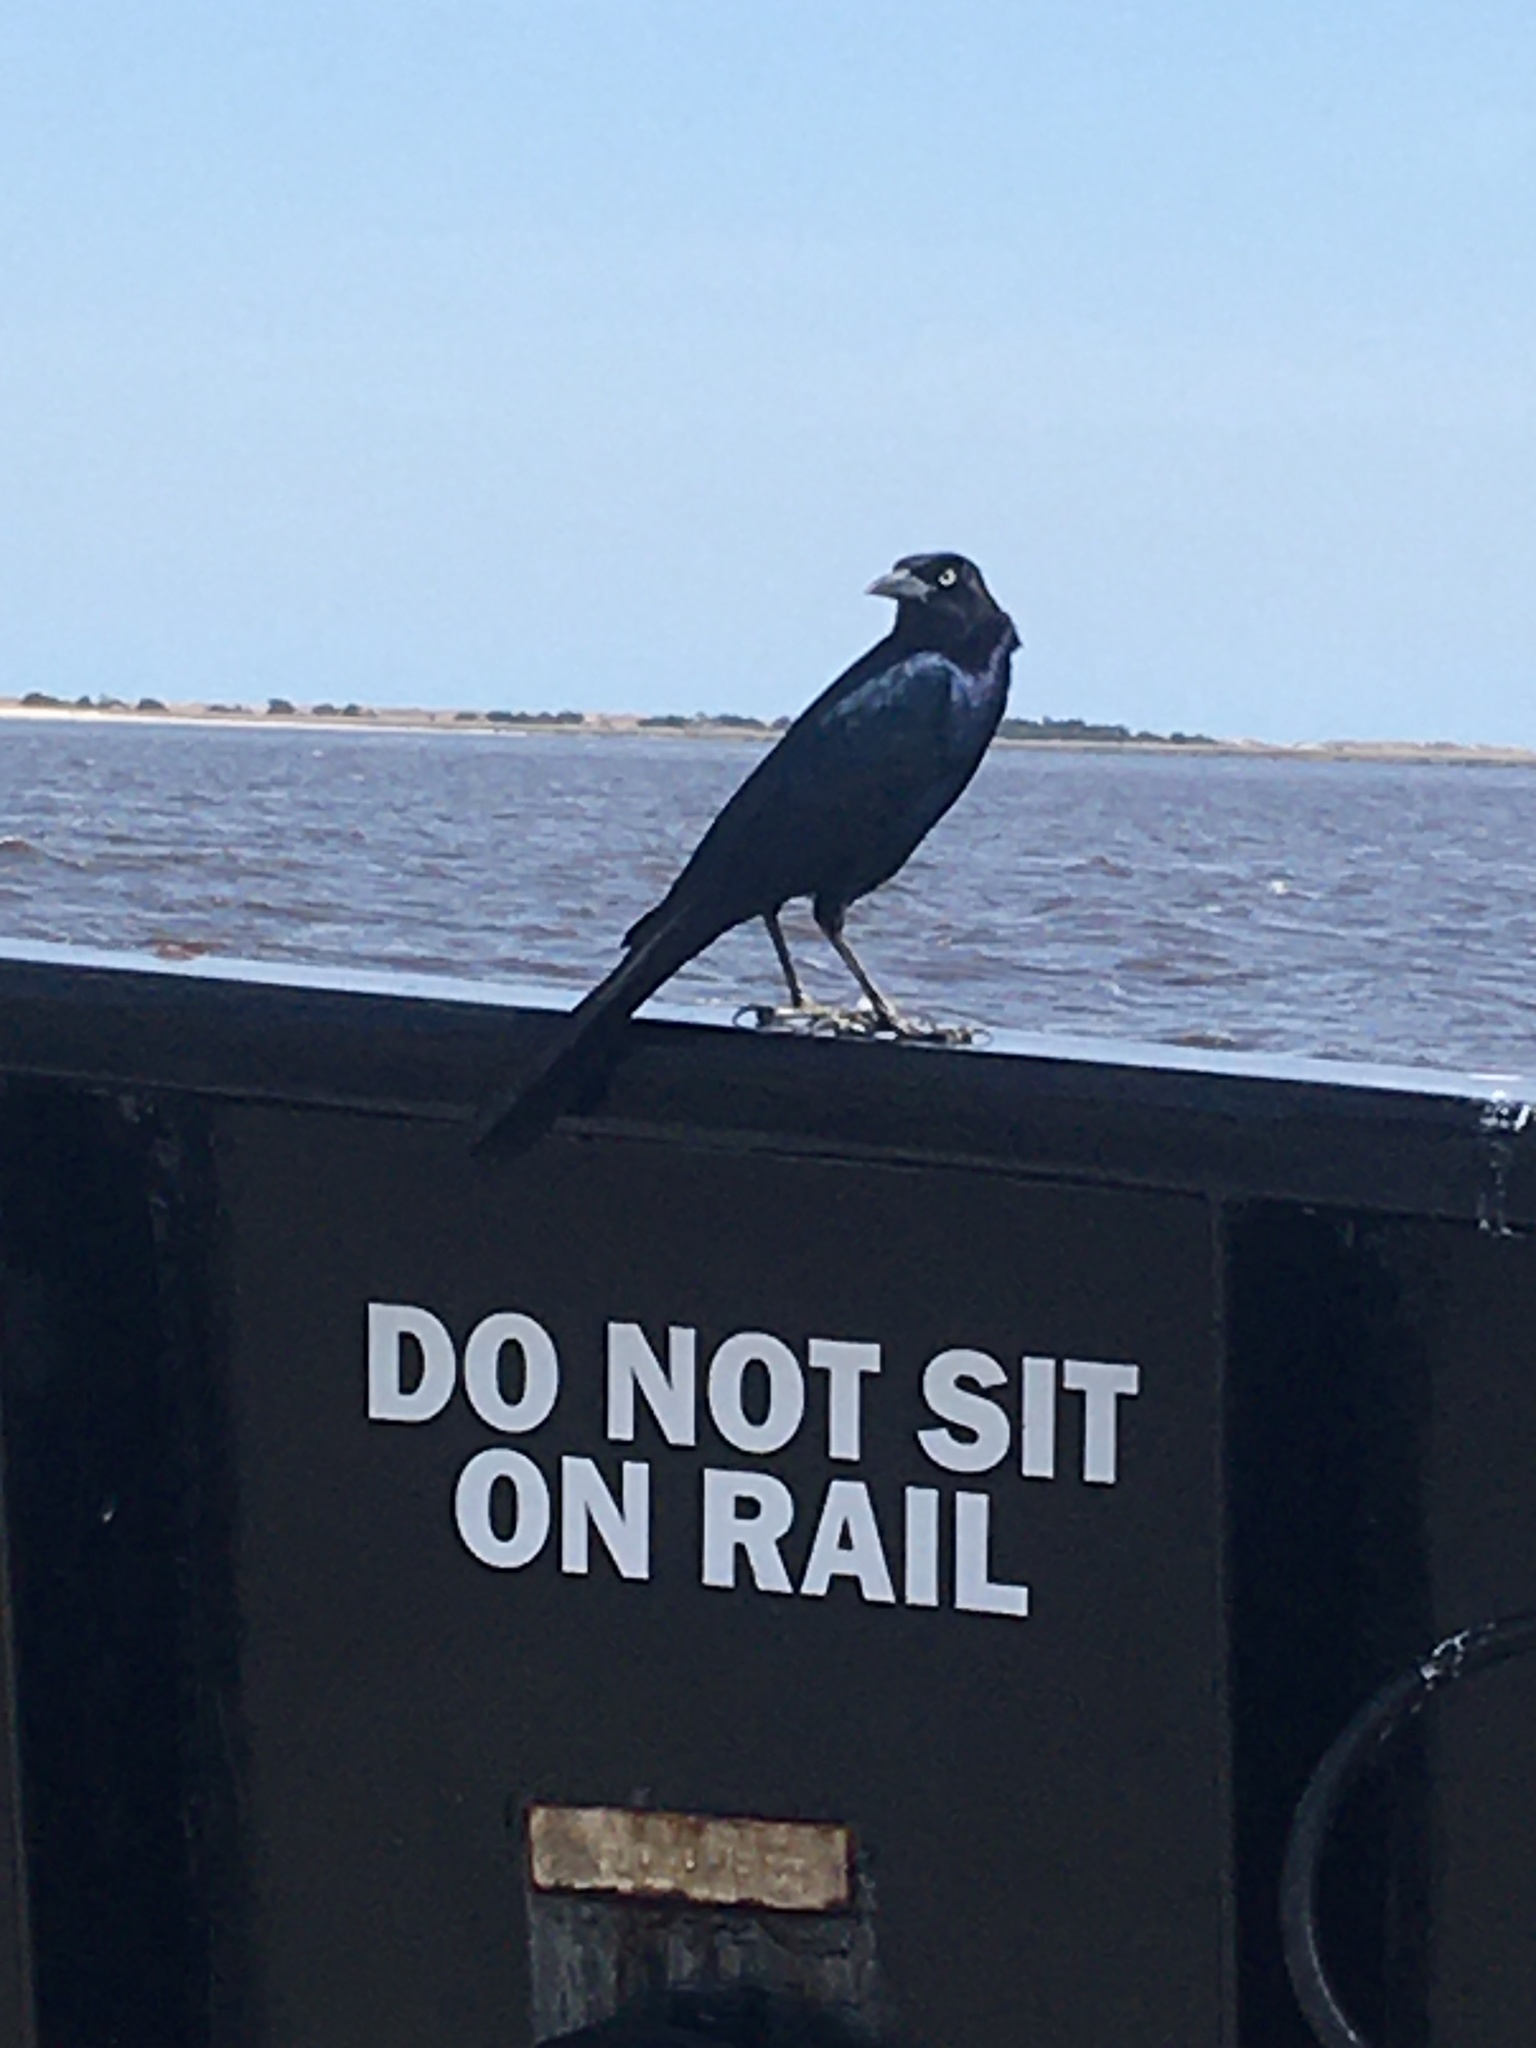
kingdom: Animalia
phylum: Chordata
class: Aves
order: Passeriformes
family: Icteridae
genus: Quiscalus
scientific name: Quiscalus major
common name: Boat-tailed grackle
